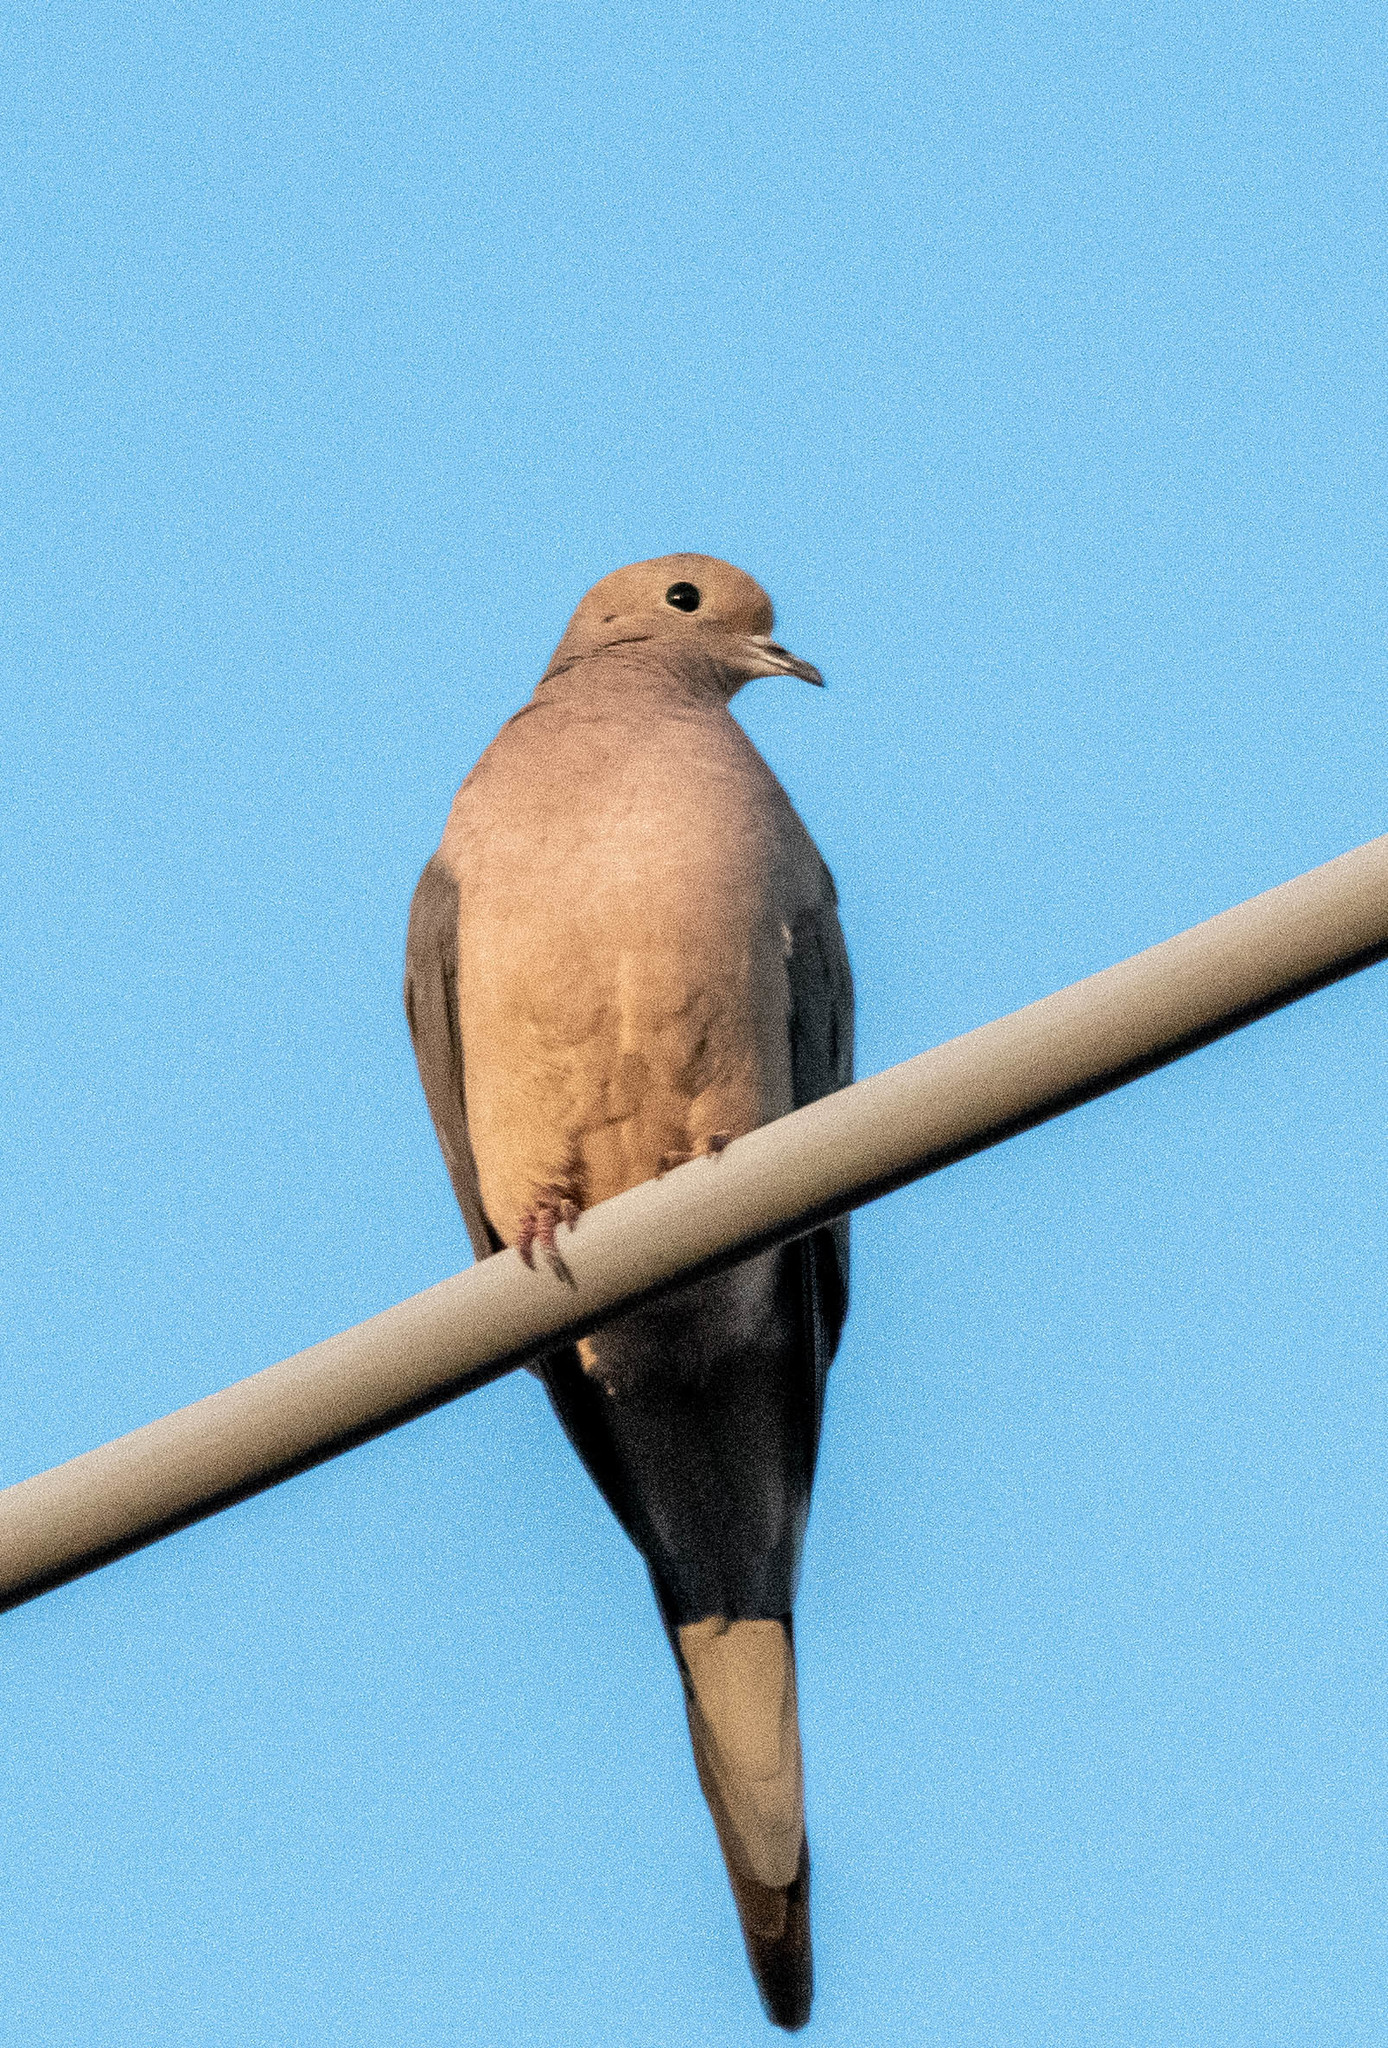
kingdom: Animalia
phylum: Chordata
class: Aves
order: Columbiformes
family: Columbidae
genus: Zenaida
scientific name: Zenaida macroura
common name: Mourning dove
